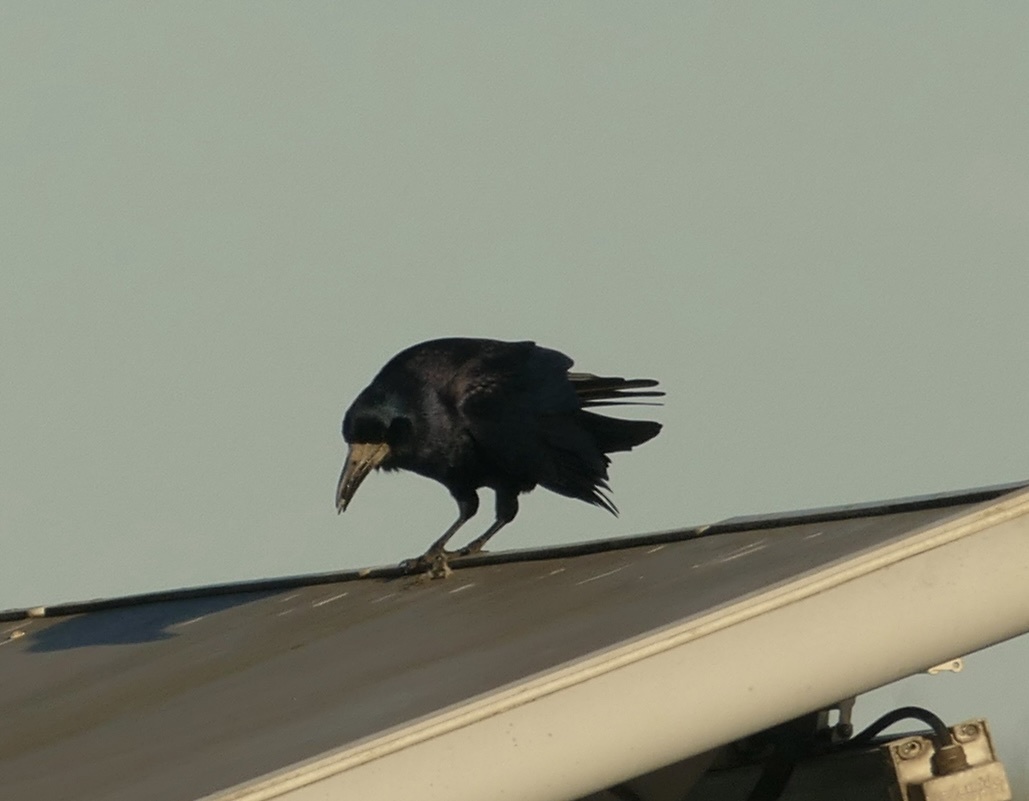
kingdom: Animalia
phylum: Chordata
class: Aves
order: Passeriformes
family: Corvidae
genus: Corvus
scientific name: Corvus frugilegus
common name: Rook
